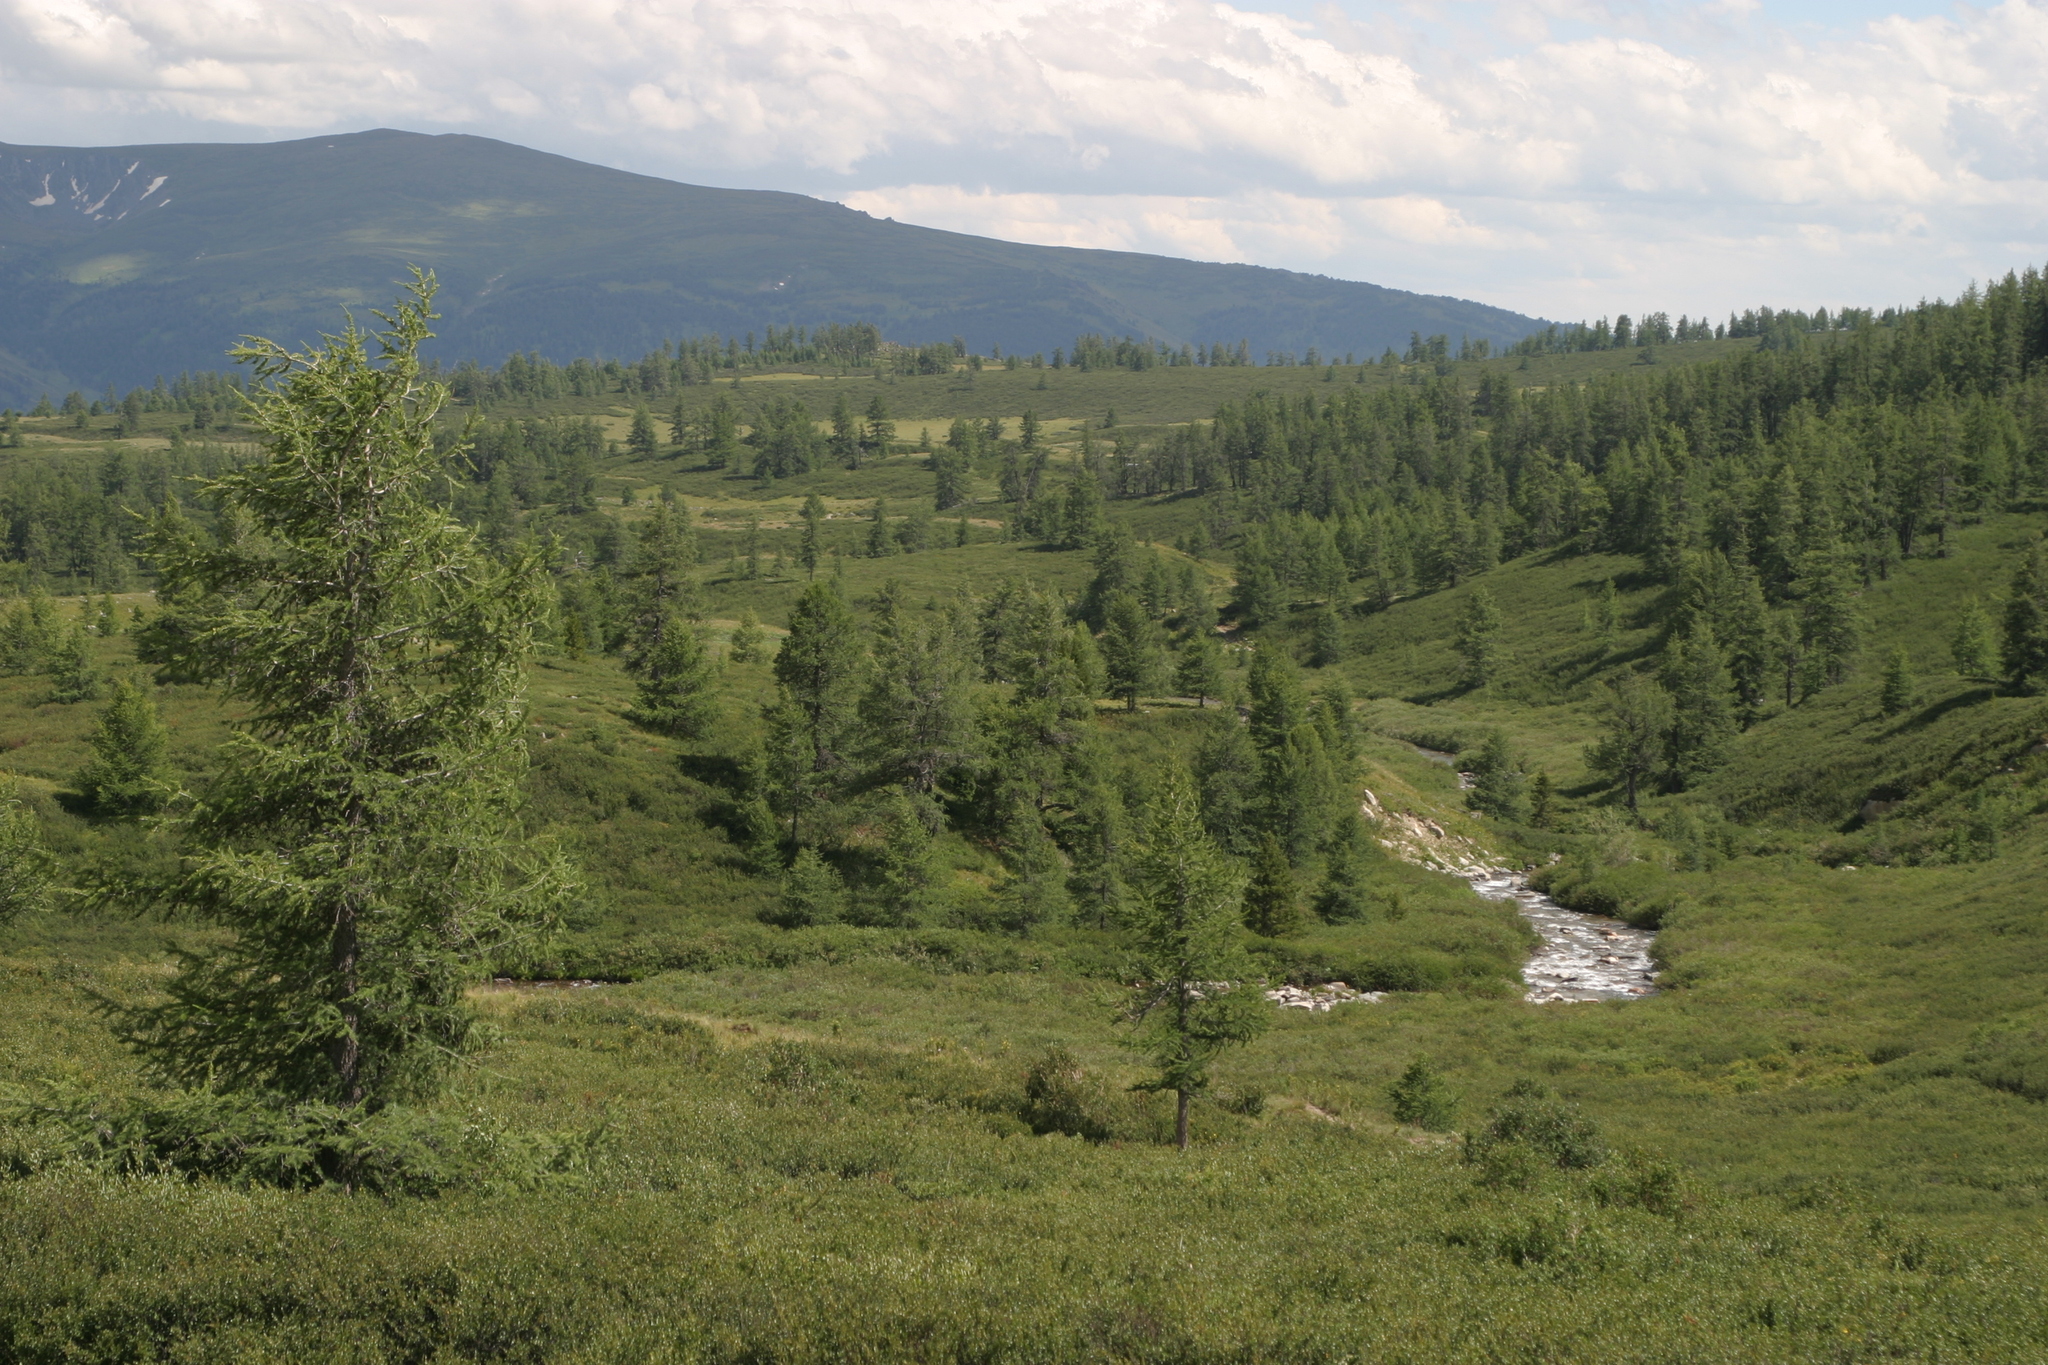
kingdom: Plantae
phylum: Tracheophyta
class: Magnoliopsida
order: Fagales
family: Betulaceae
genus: Betula
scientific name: Betula glandulosa
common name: Dwarf birch
